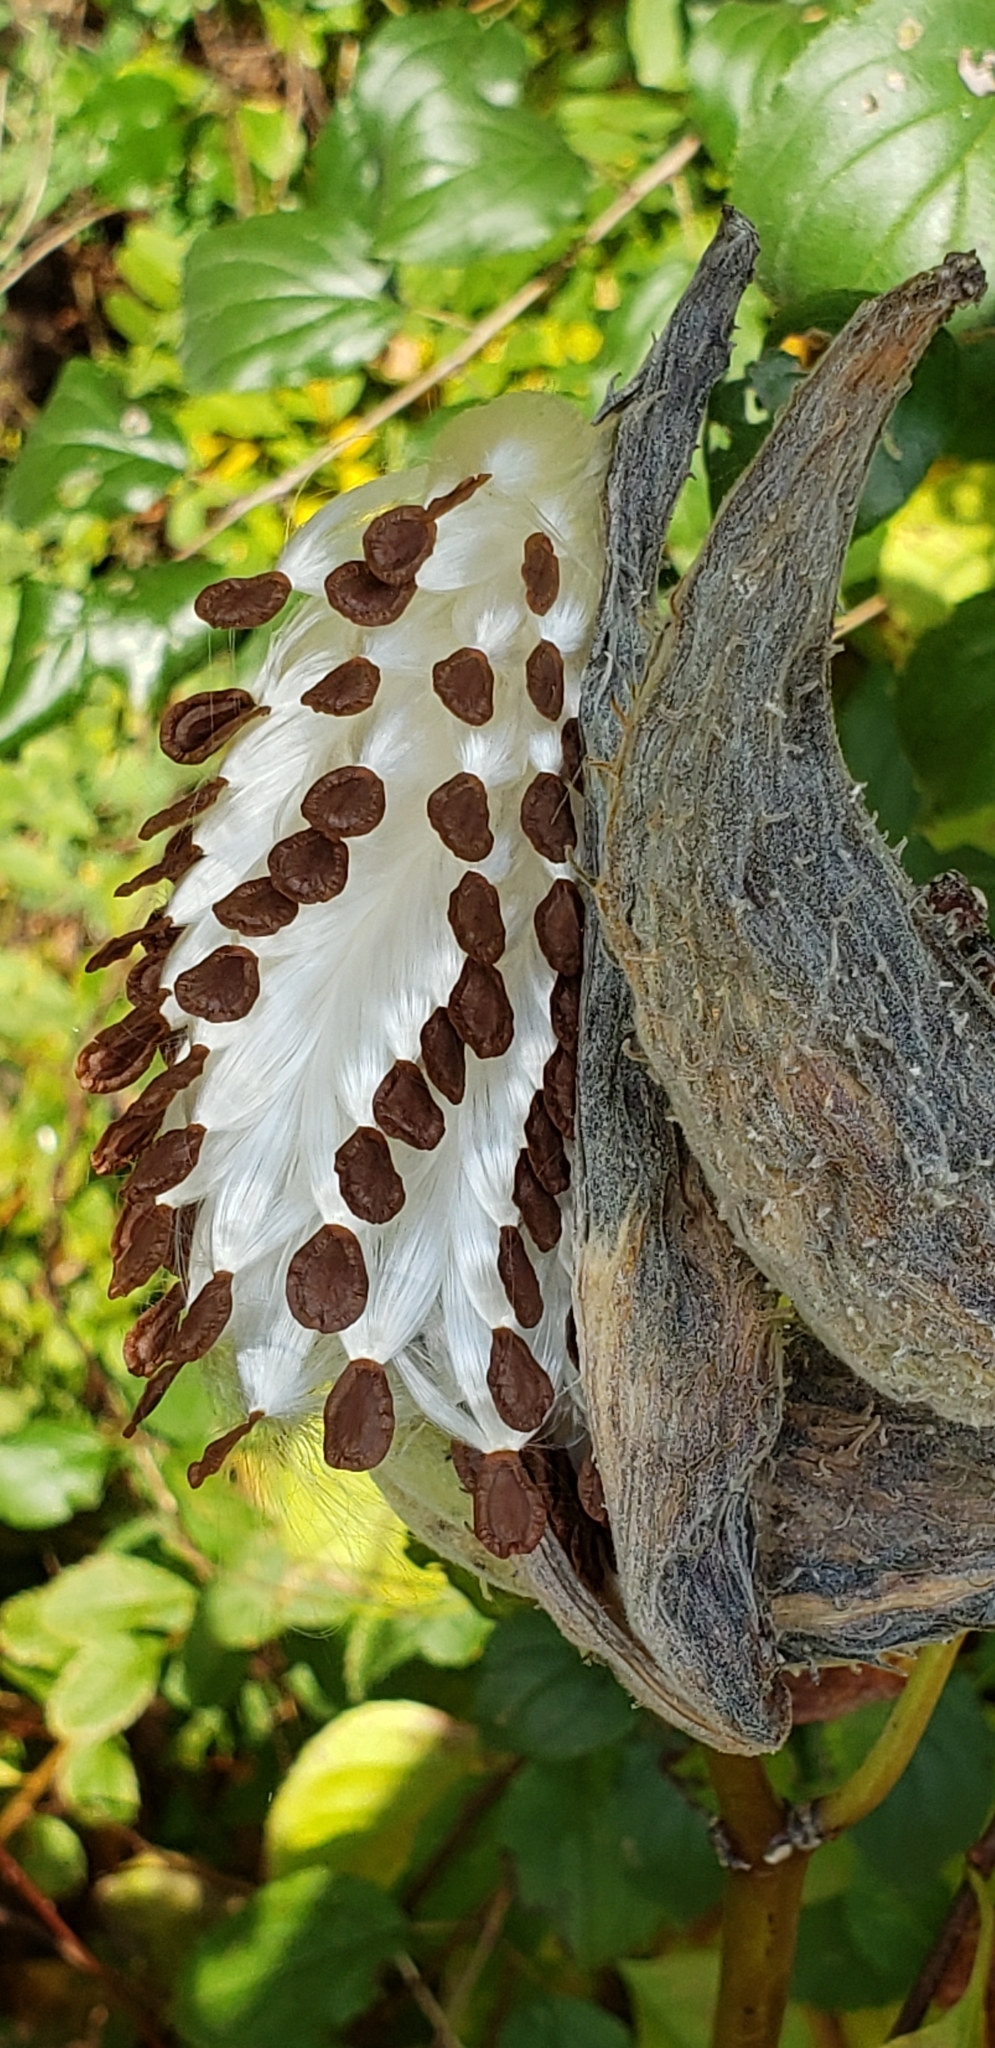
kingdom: Plantae
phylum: Tracheophyta
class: Magnoliopsida
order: Gentianales
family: Apocynaceae
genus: Asclepias
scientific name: Asclepias syriaca
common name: Common milkweed
